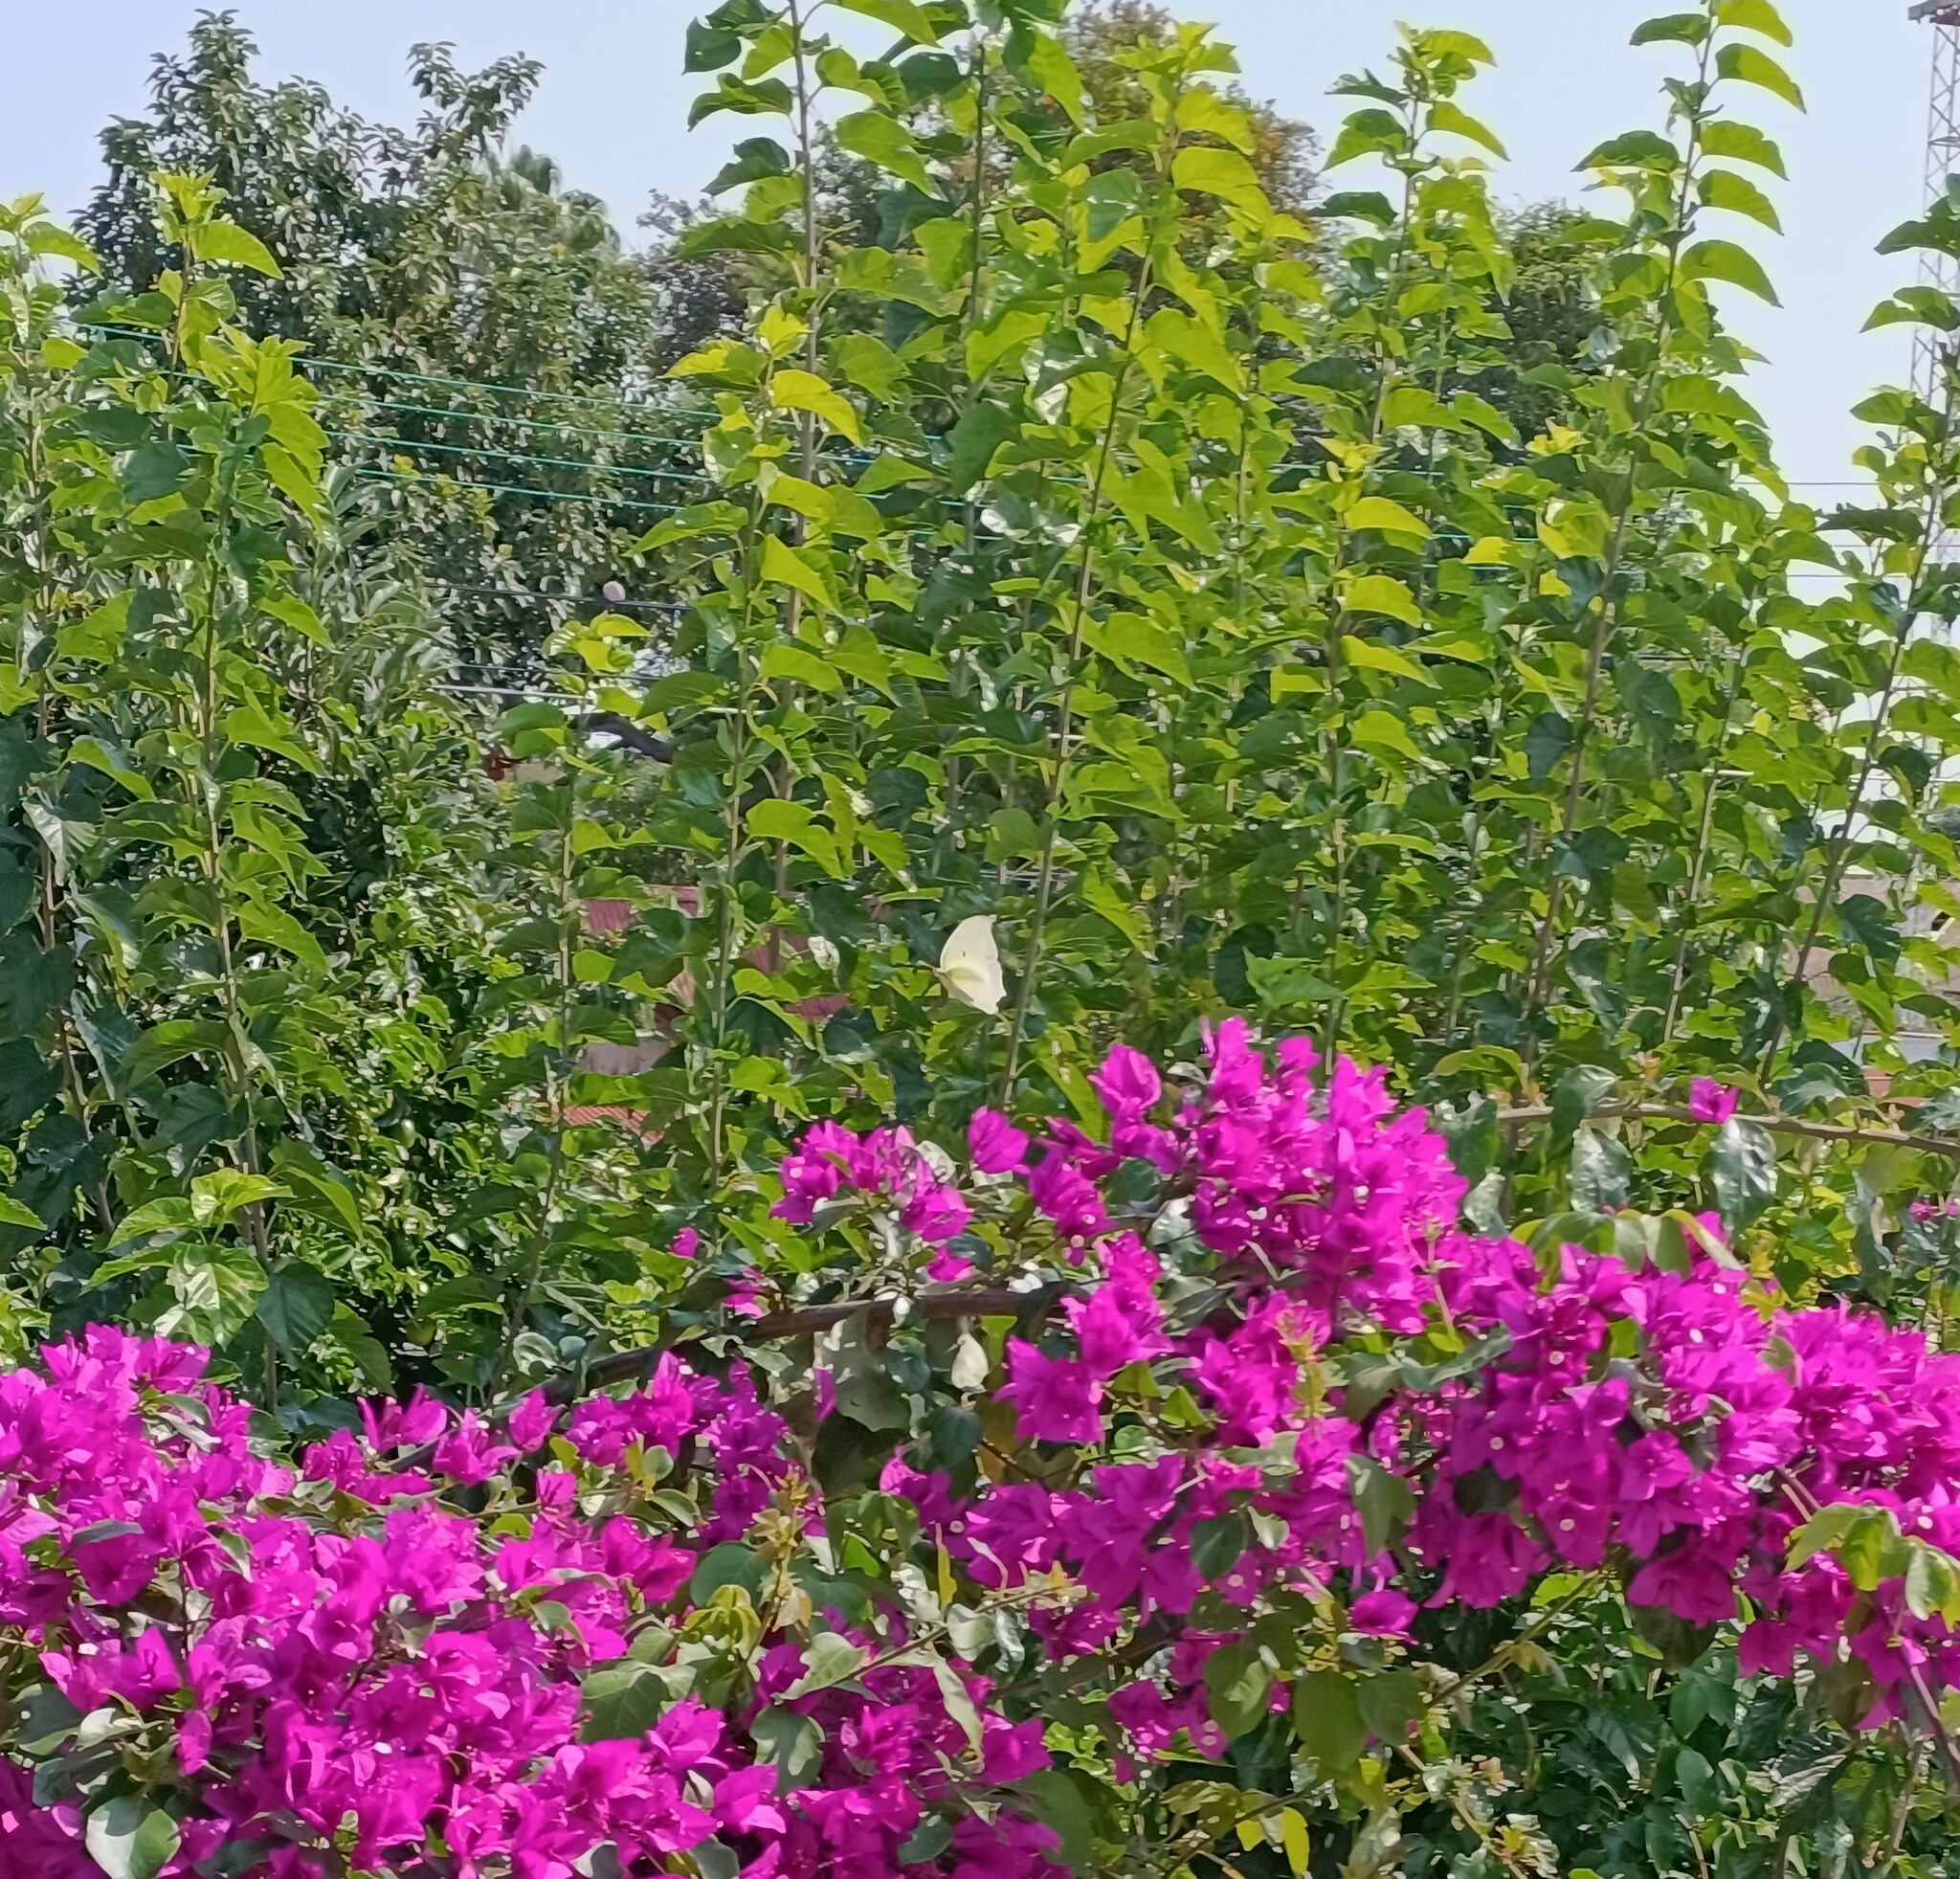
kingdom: Animalia
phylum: Arthropoda
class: Insecta
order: Lepidoptera
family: Pieridae
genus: Anteos
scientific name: Anteos clorinde
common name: White angled sulphur
